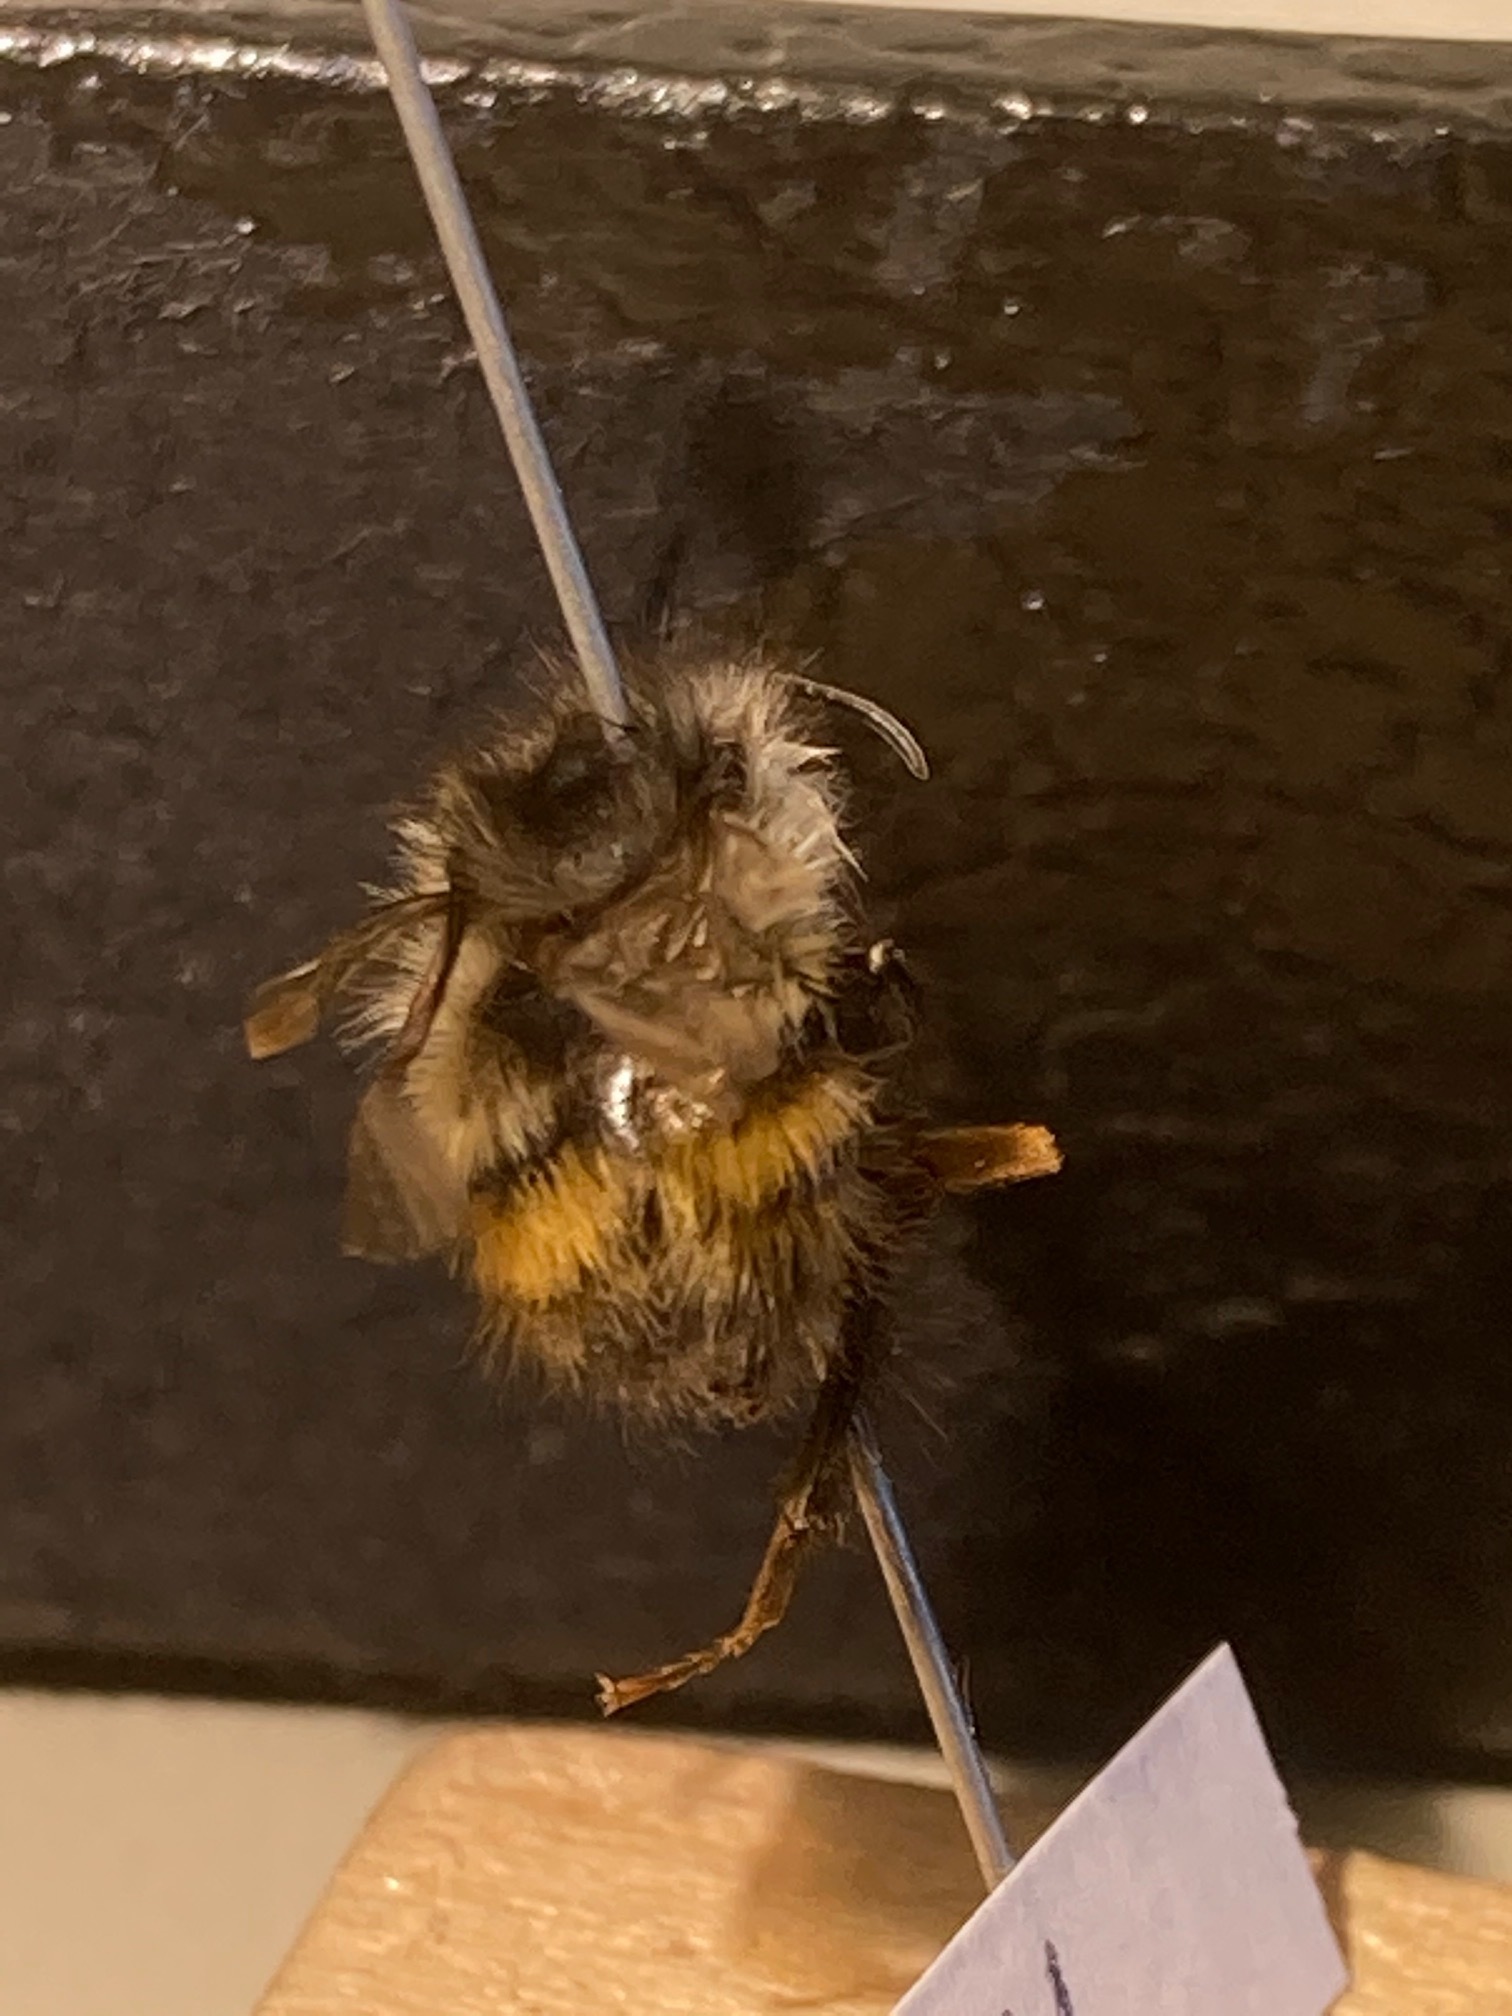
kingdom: Animalia
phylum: Arthropoda
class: Insecta
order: Hymenoptera
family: Apidae
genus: Bombus
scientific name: Bombus flavifrons
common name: Yellow head bumble bee
